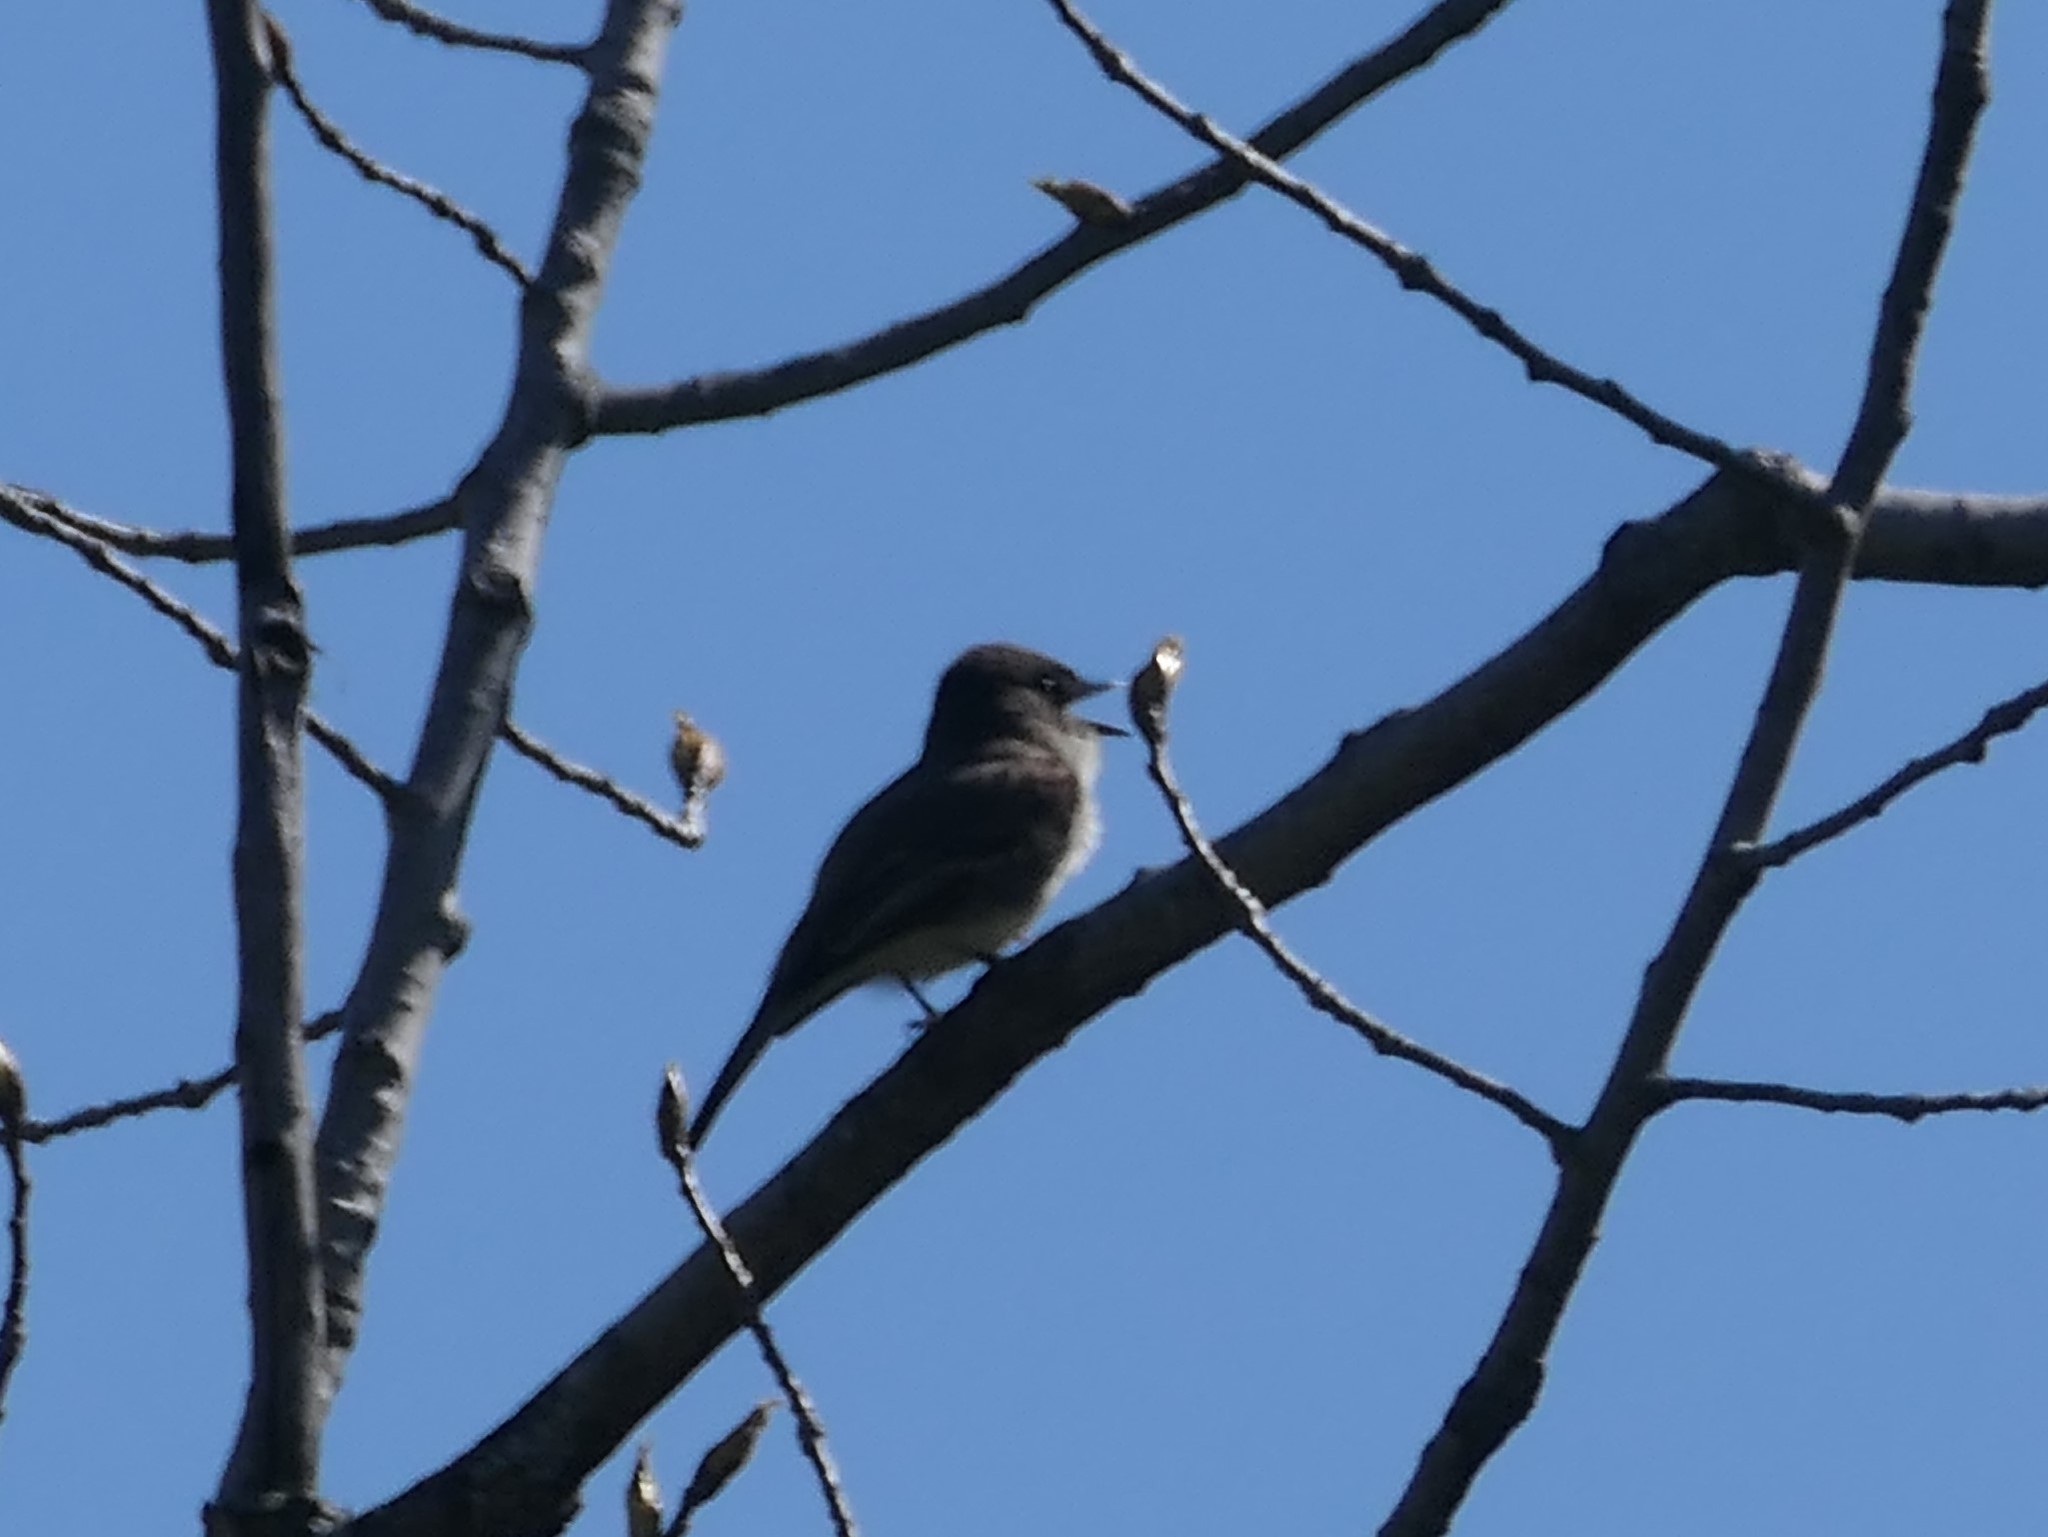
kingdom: Animalia
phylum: Chordata
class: Aves
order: Passeriformes
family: Tyrannidae
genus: Sayornis
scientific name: Sayornis phoebe
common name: Eastern phoebe
